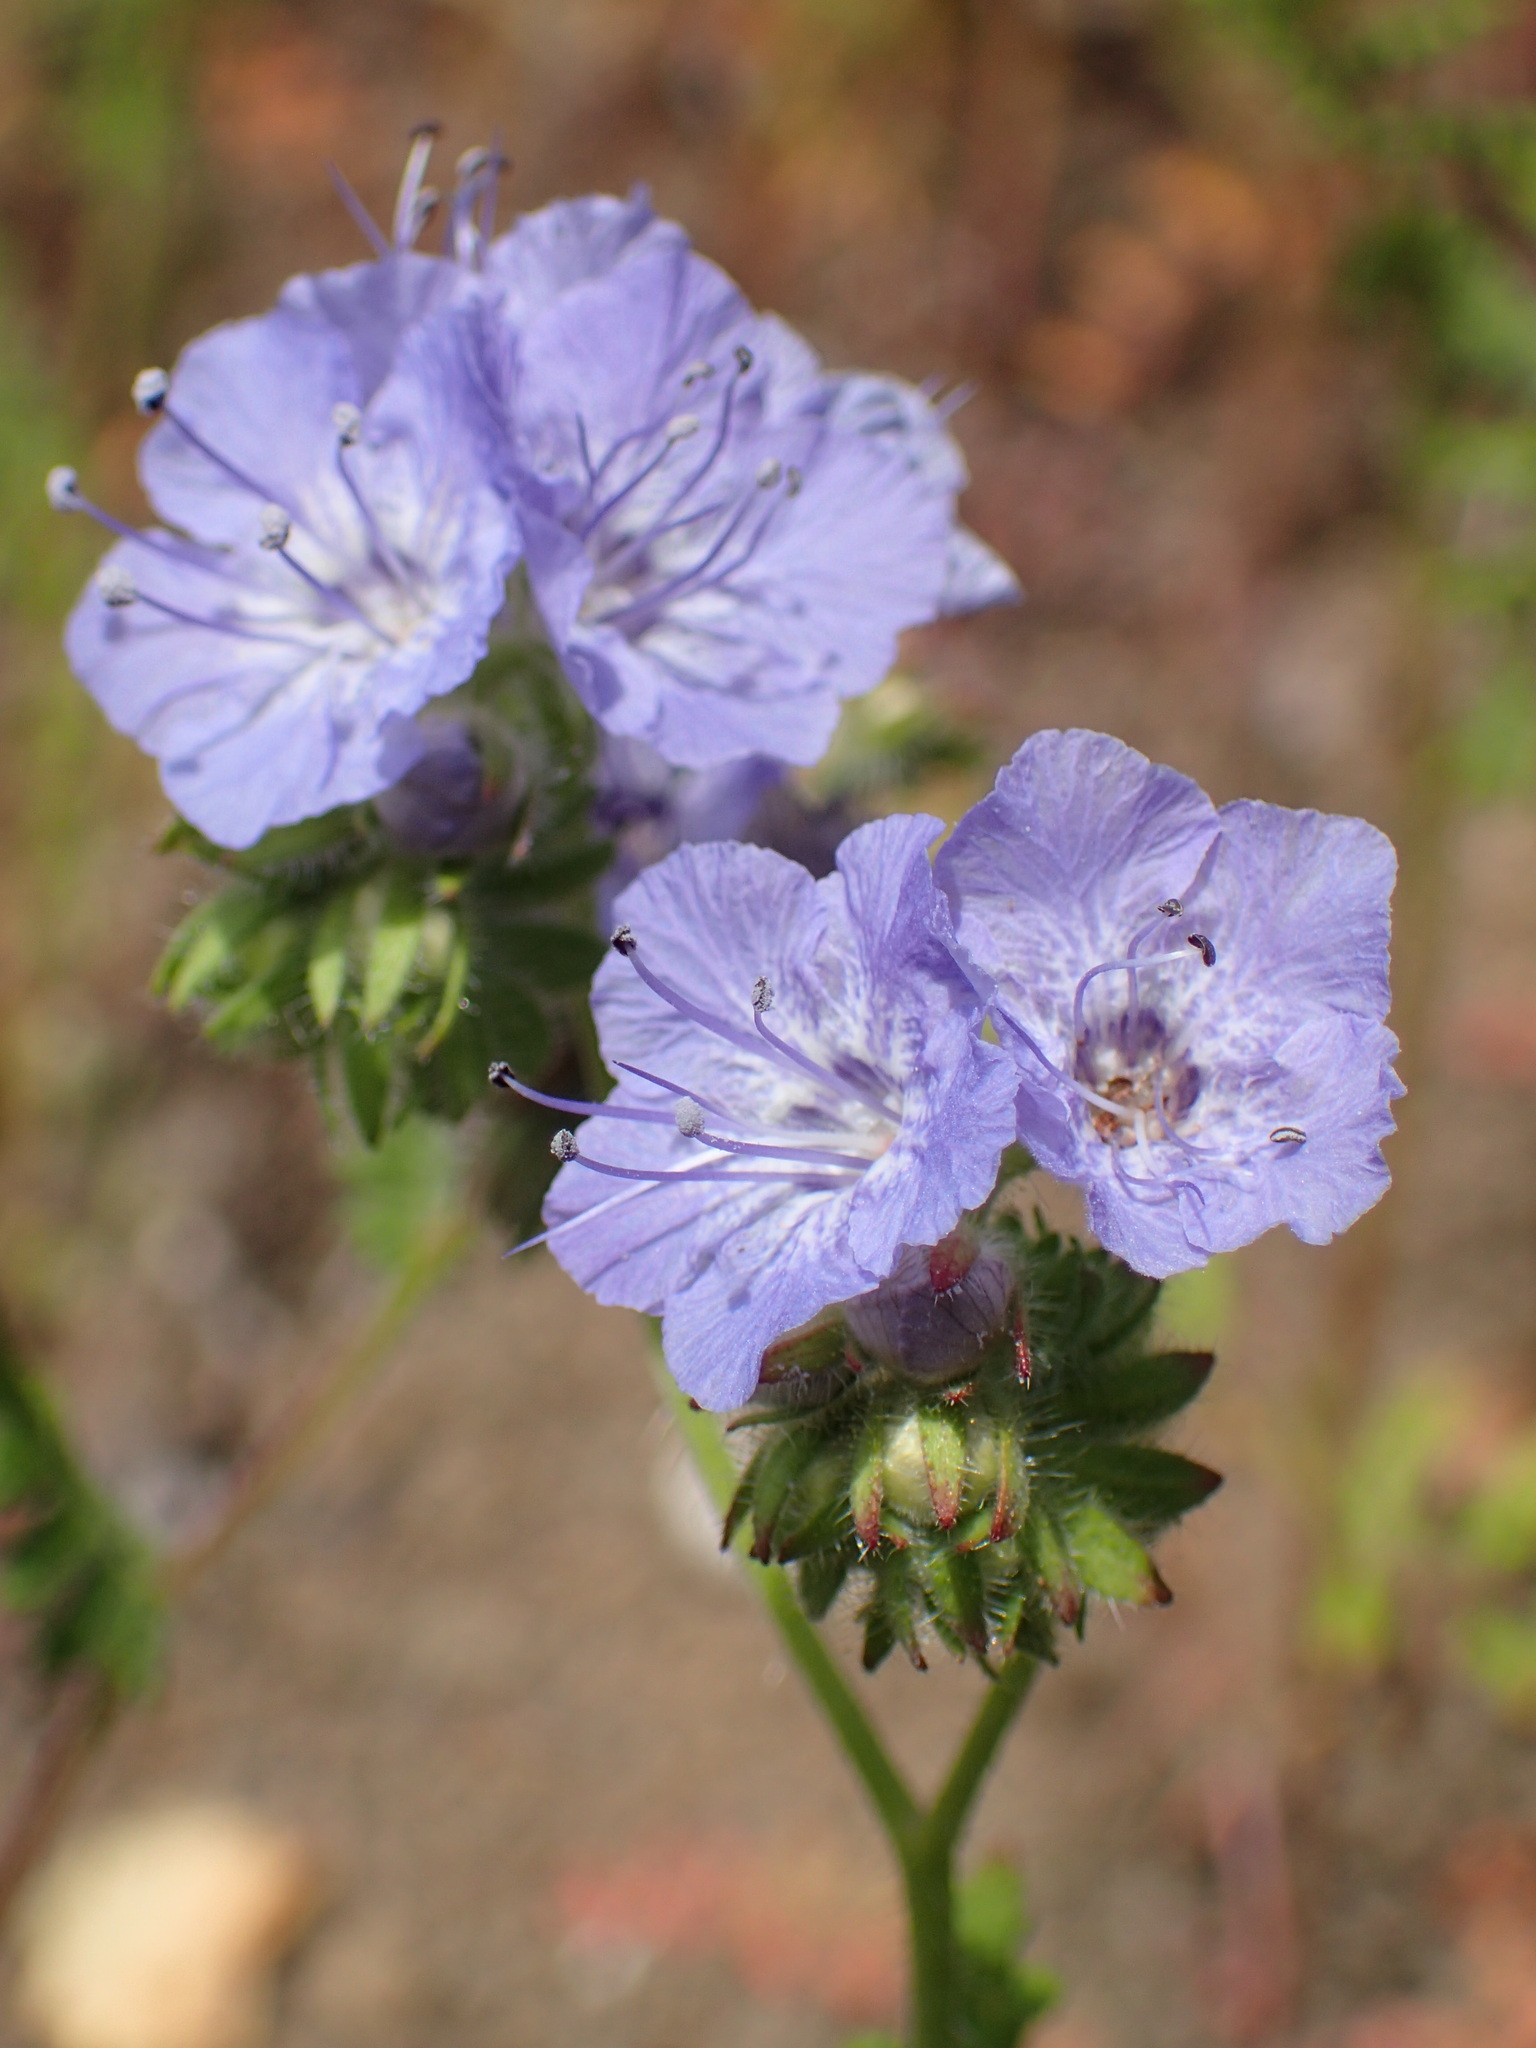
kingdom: Plantae
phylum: Tracheophyta
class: Magnoliopsida
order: Boraginales
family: Hydrophyllaceae
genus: Phacelia
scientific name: Phacelia distans
